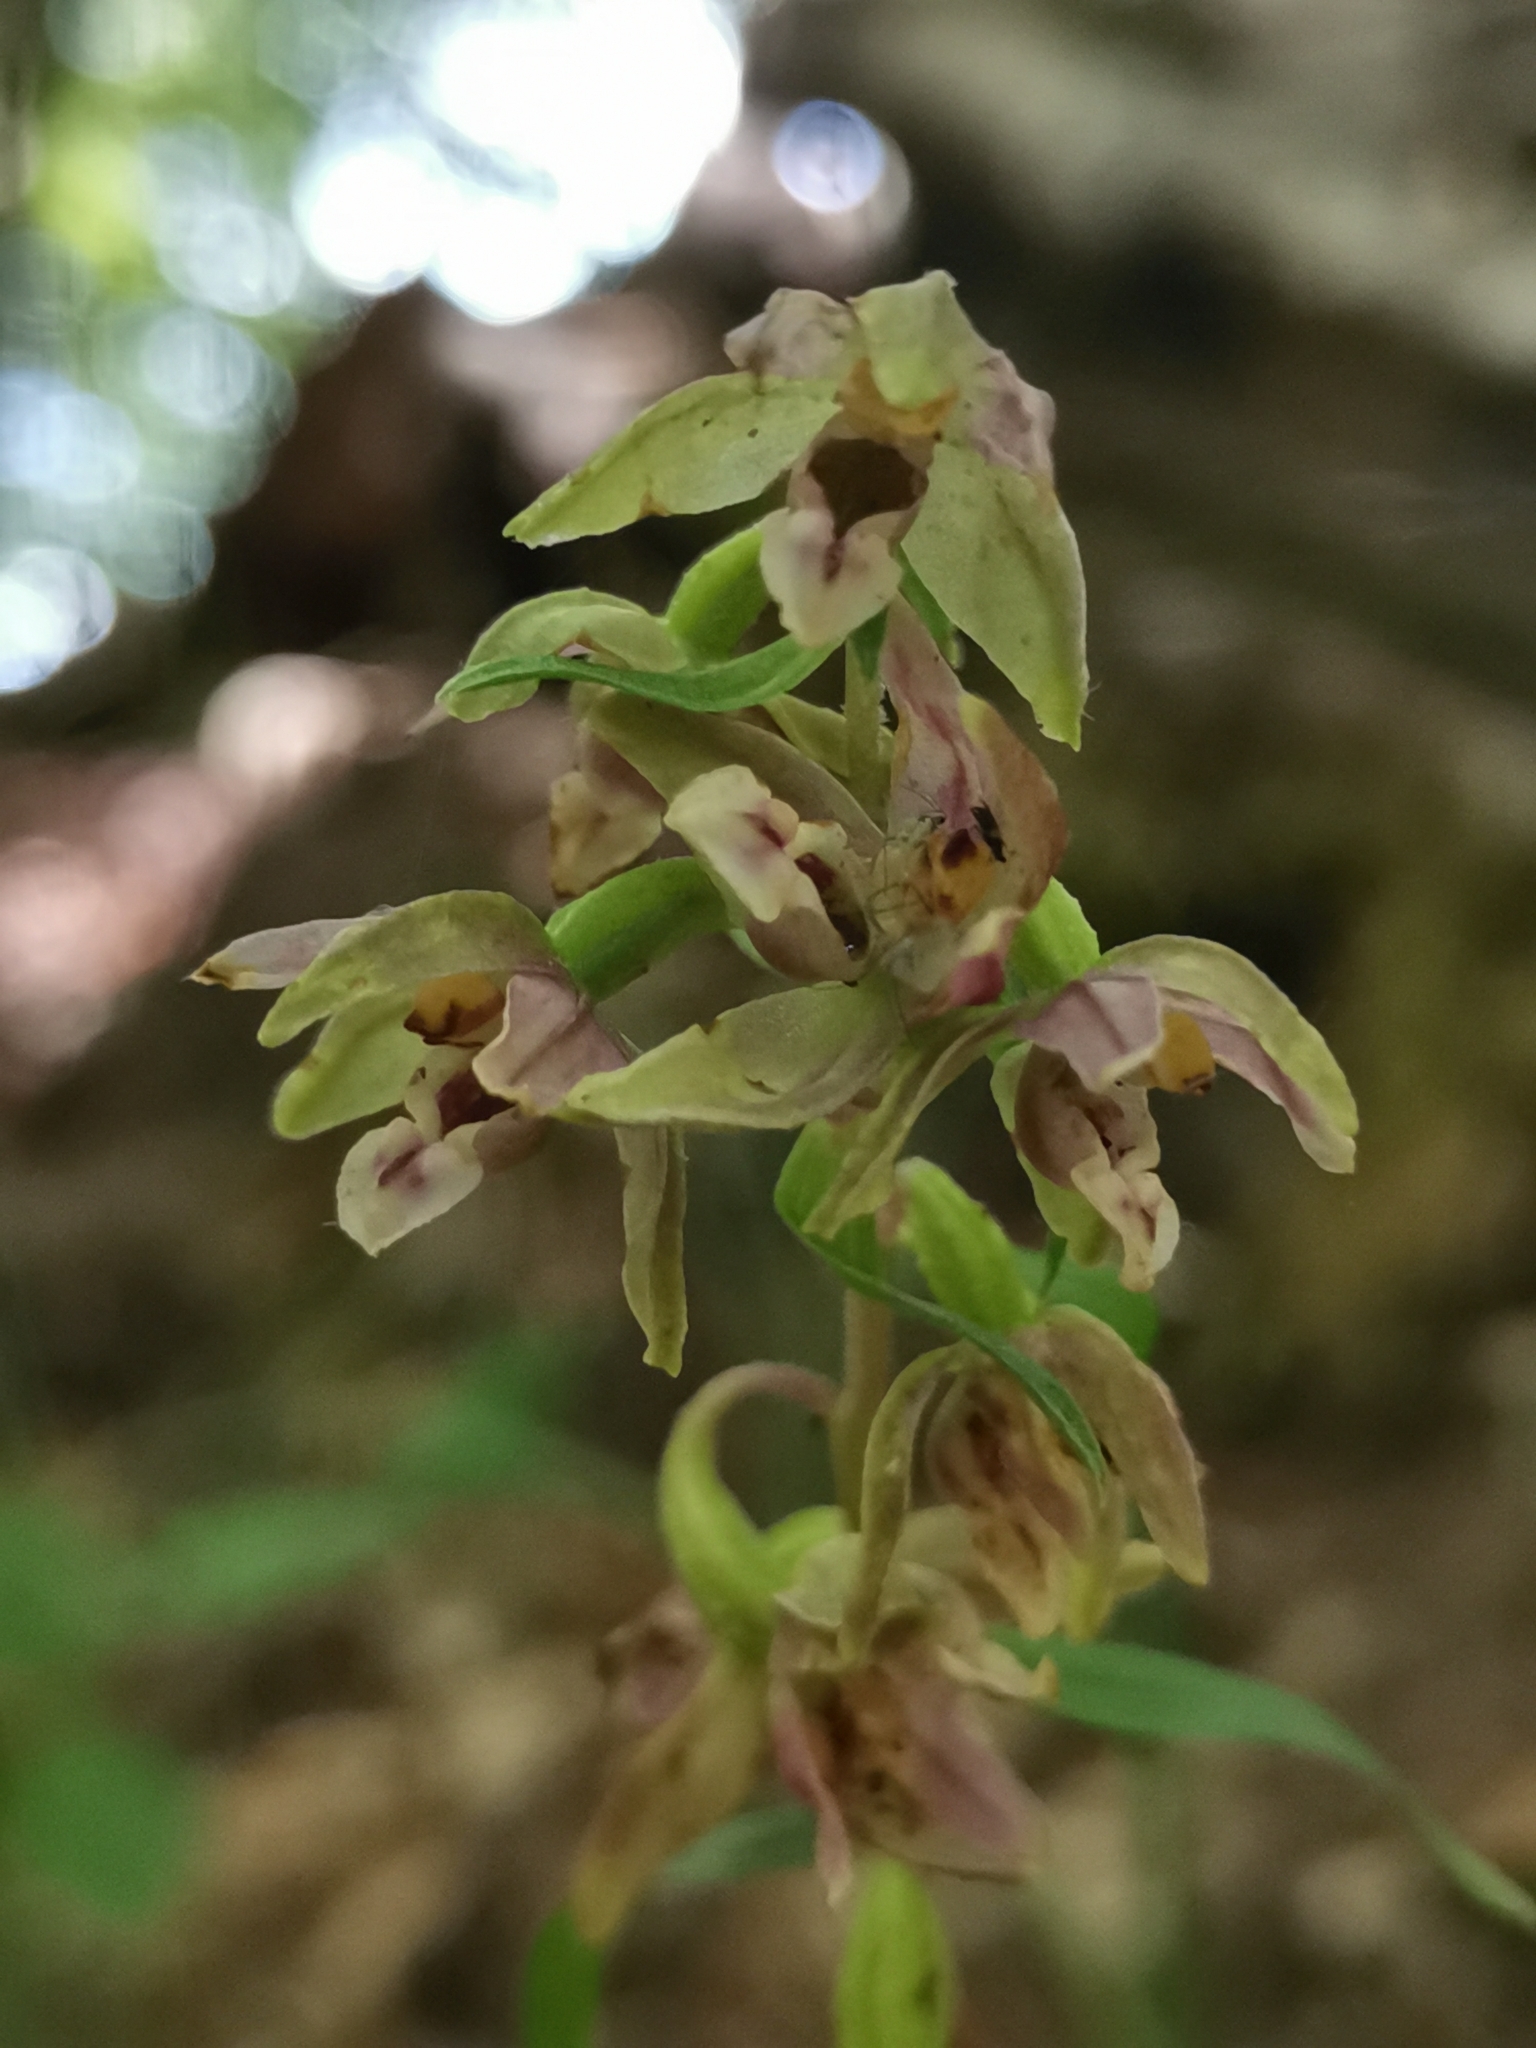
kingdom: Plantae
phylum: Tracheophyta
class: Liliopsida
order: Asparagales
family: Orchidaceae
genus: Epipactis
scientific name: Epipactis leptochila
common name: Narrow-lipped helleborine
